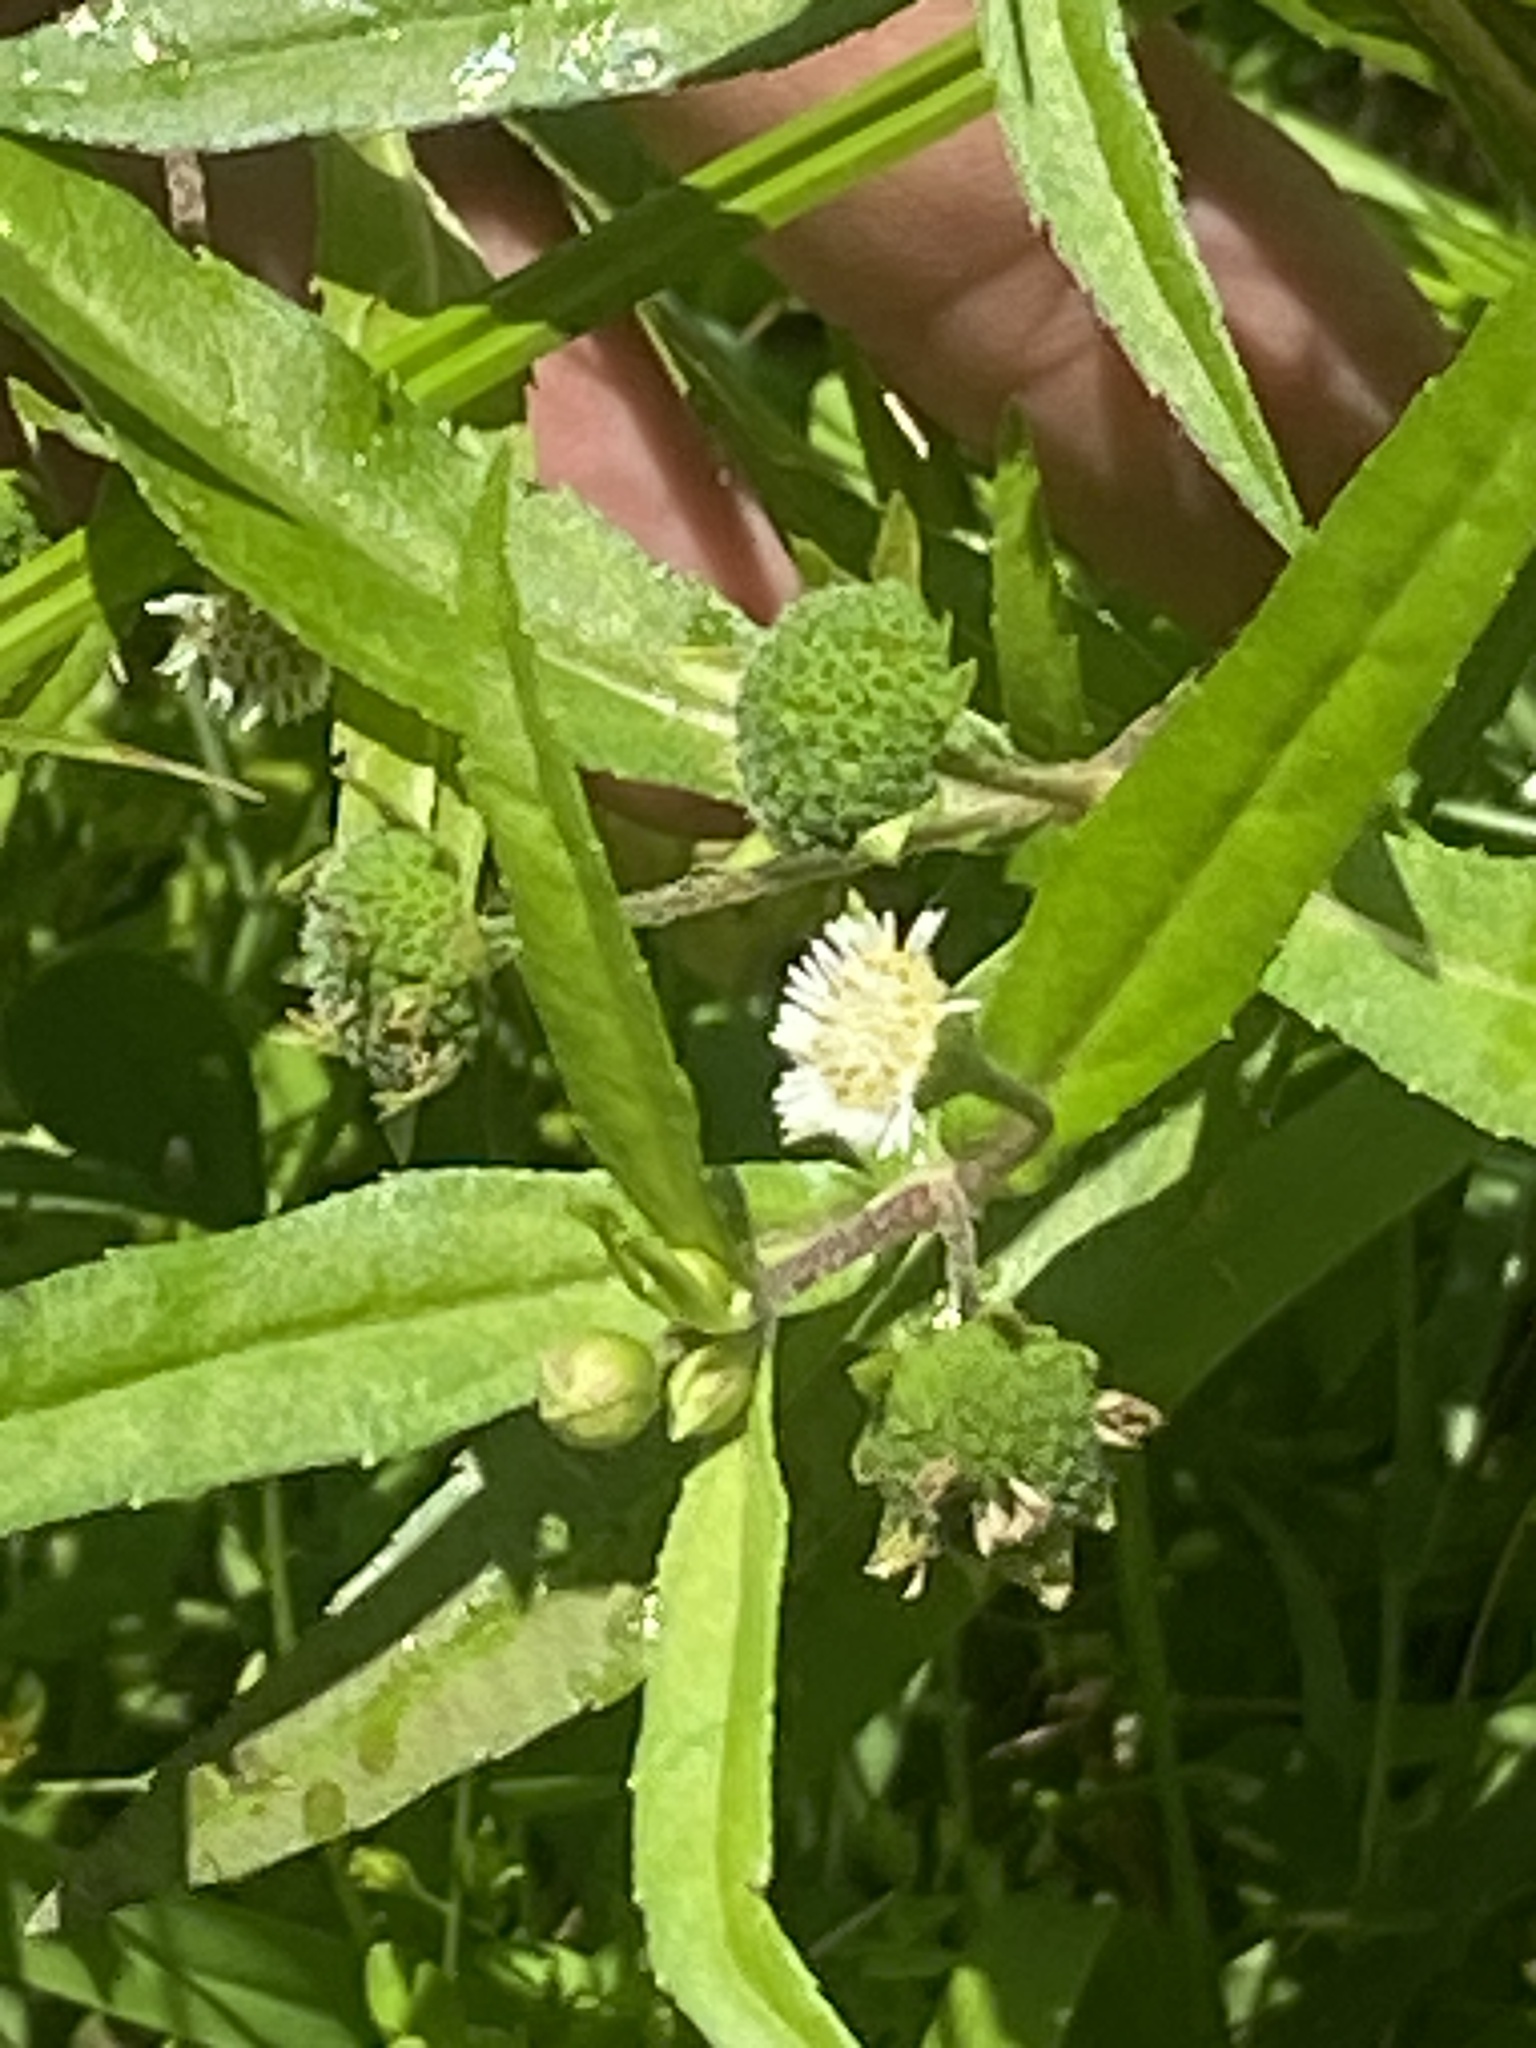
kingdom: Plantae
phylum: Tracheophyta
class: Magnoliopsida
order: Asterales
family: Asteraceae
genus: Eclipta
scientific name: Eclipta prostrata
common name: False daisy
